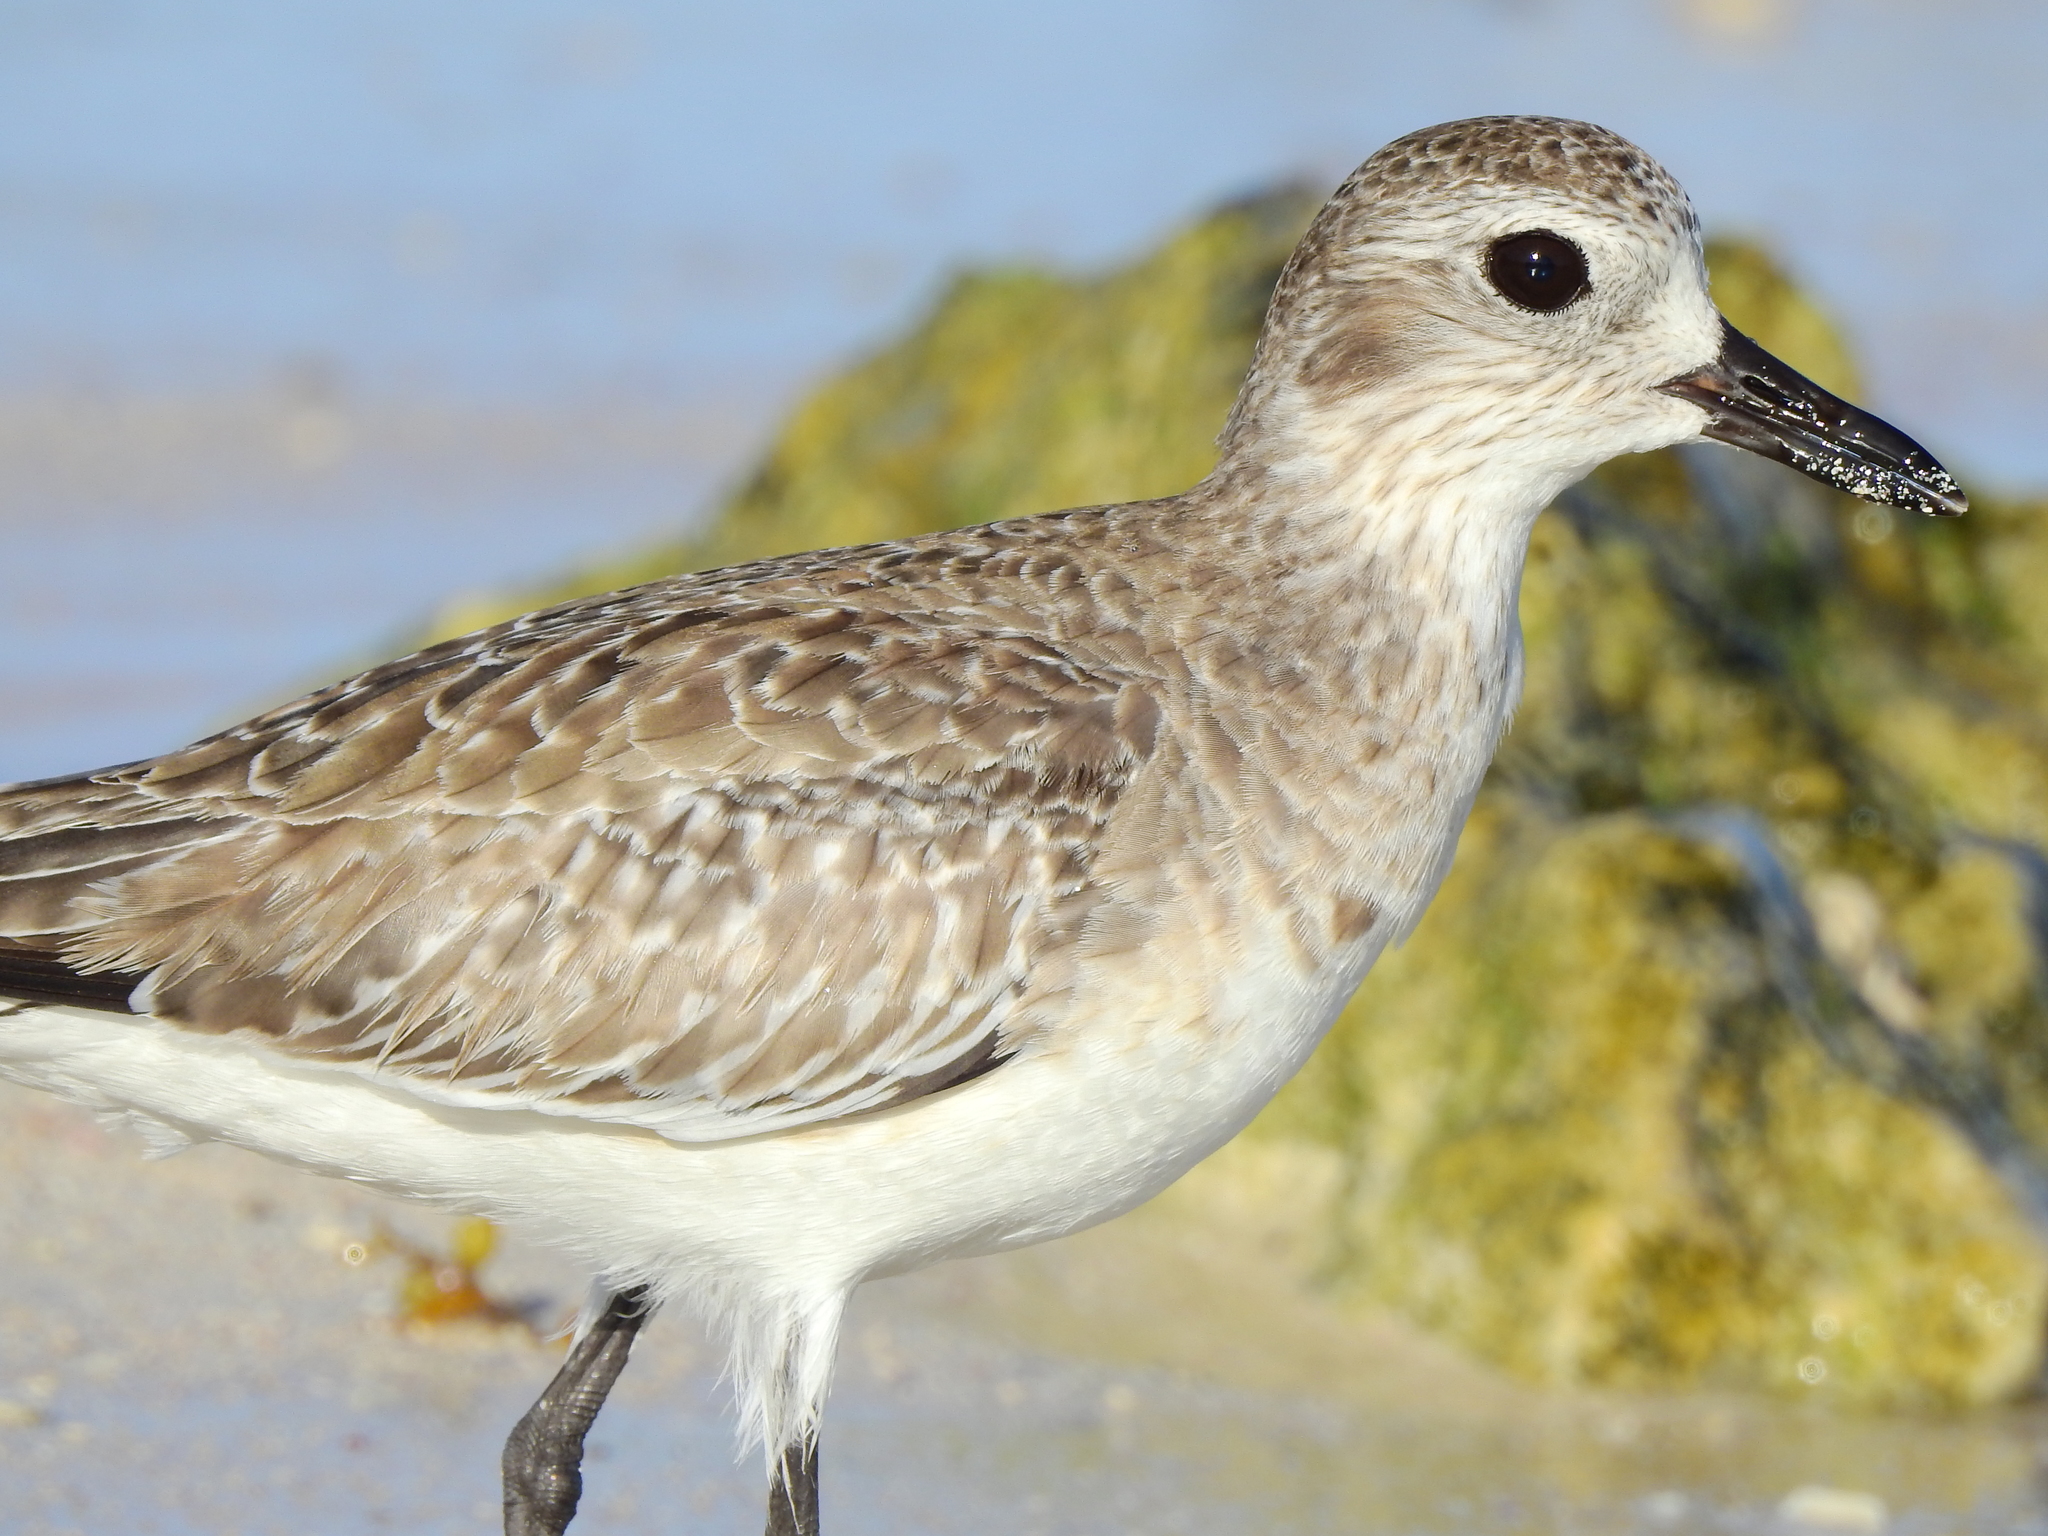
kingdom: Animalia
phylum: Chordata
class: Aves
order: Charadriiformes
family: Charadriidae
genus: Pluvialis
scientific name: Pluvialis squatarola
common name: Grey plover
